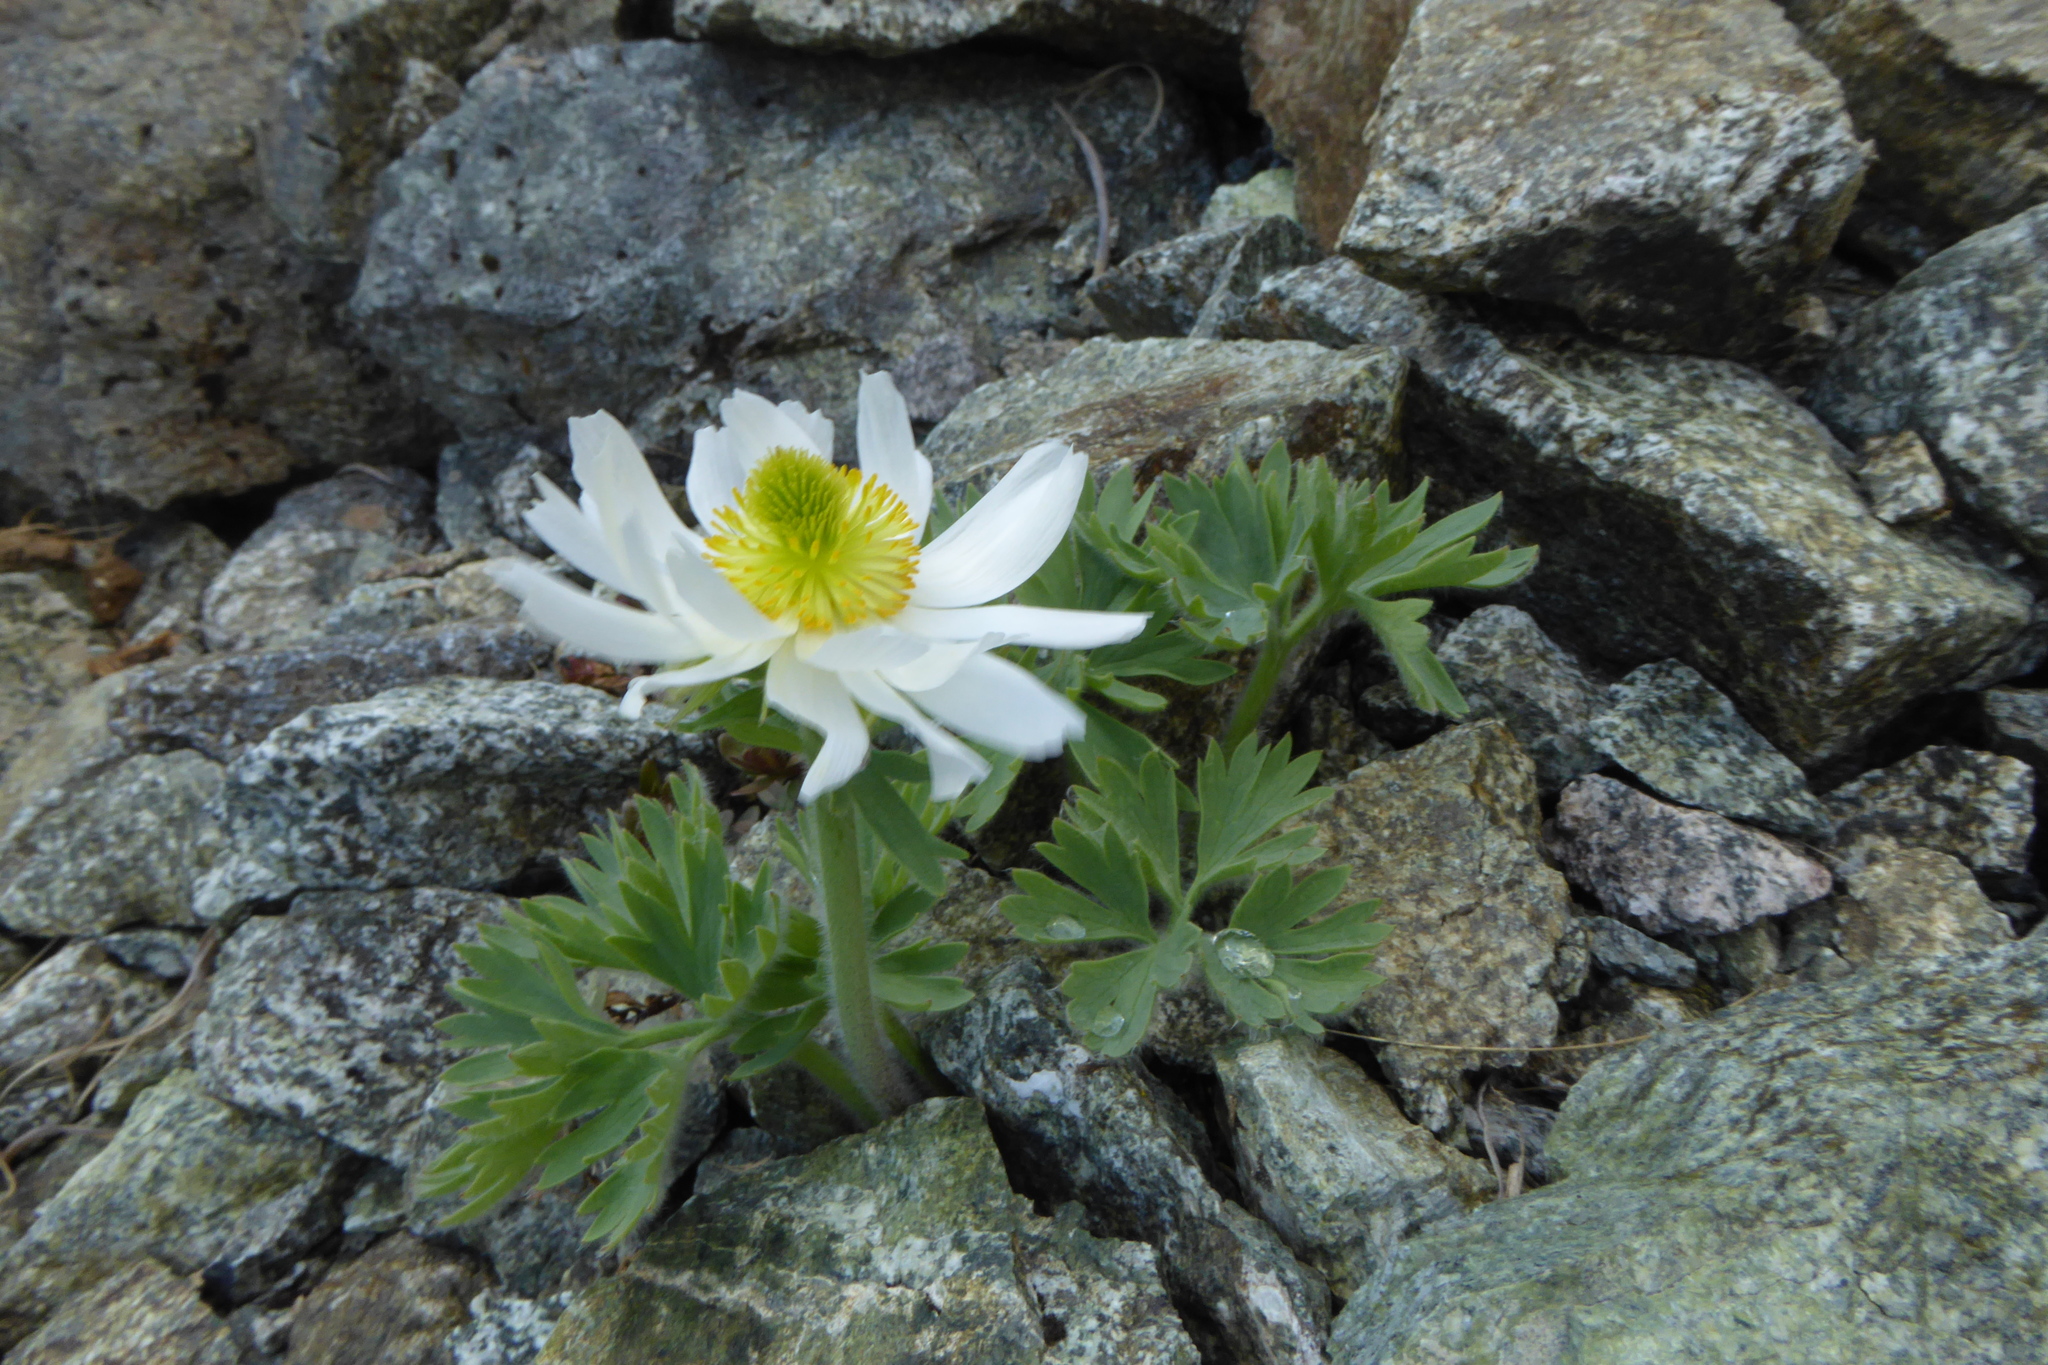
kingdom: Plantae
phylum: Tracheophyta
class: Magnoliopsida
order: Ranunculales
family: Ranunculaceae
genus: Ranunculus
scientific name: Ranunculus buchananii
